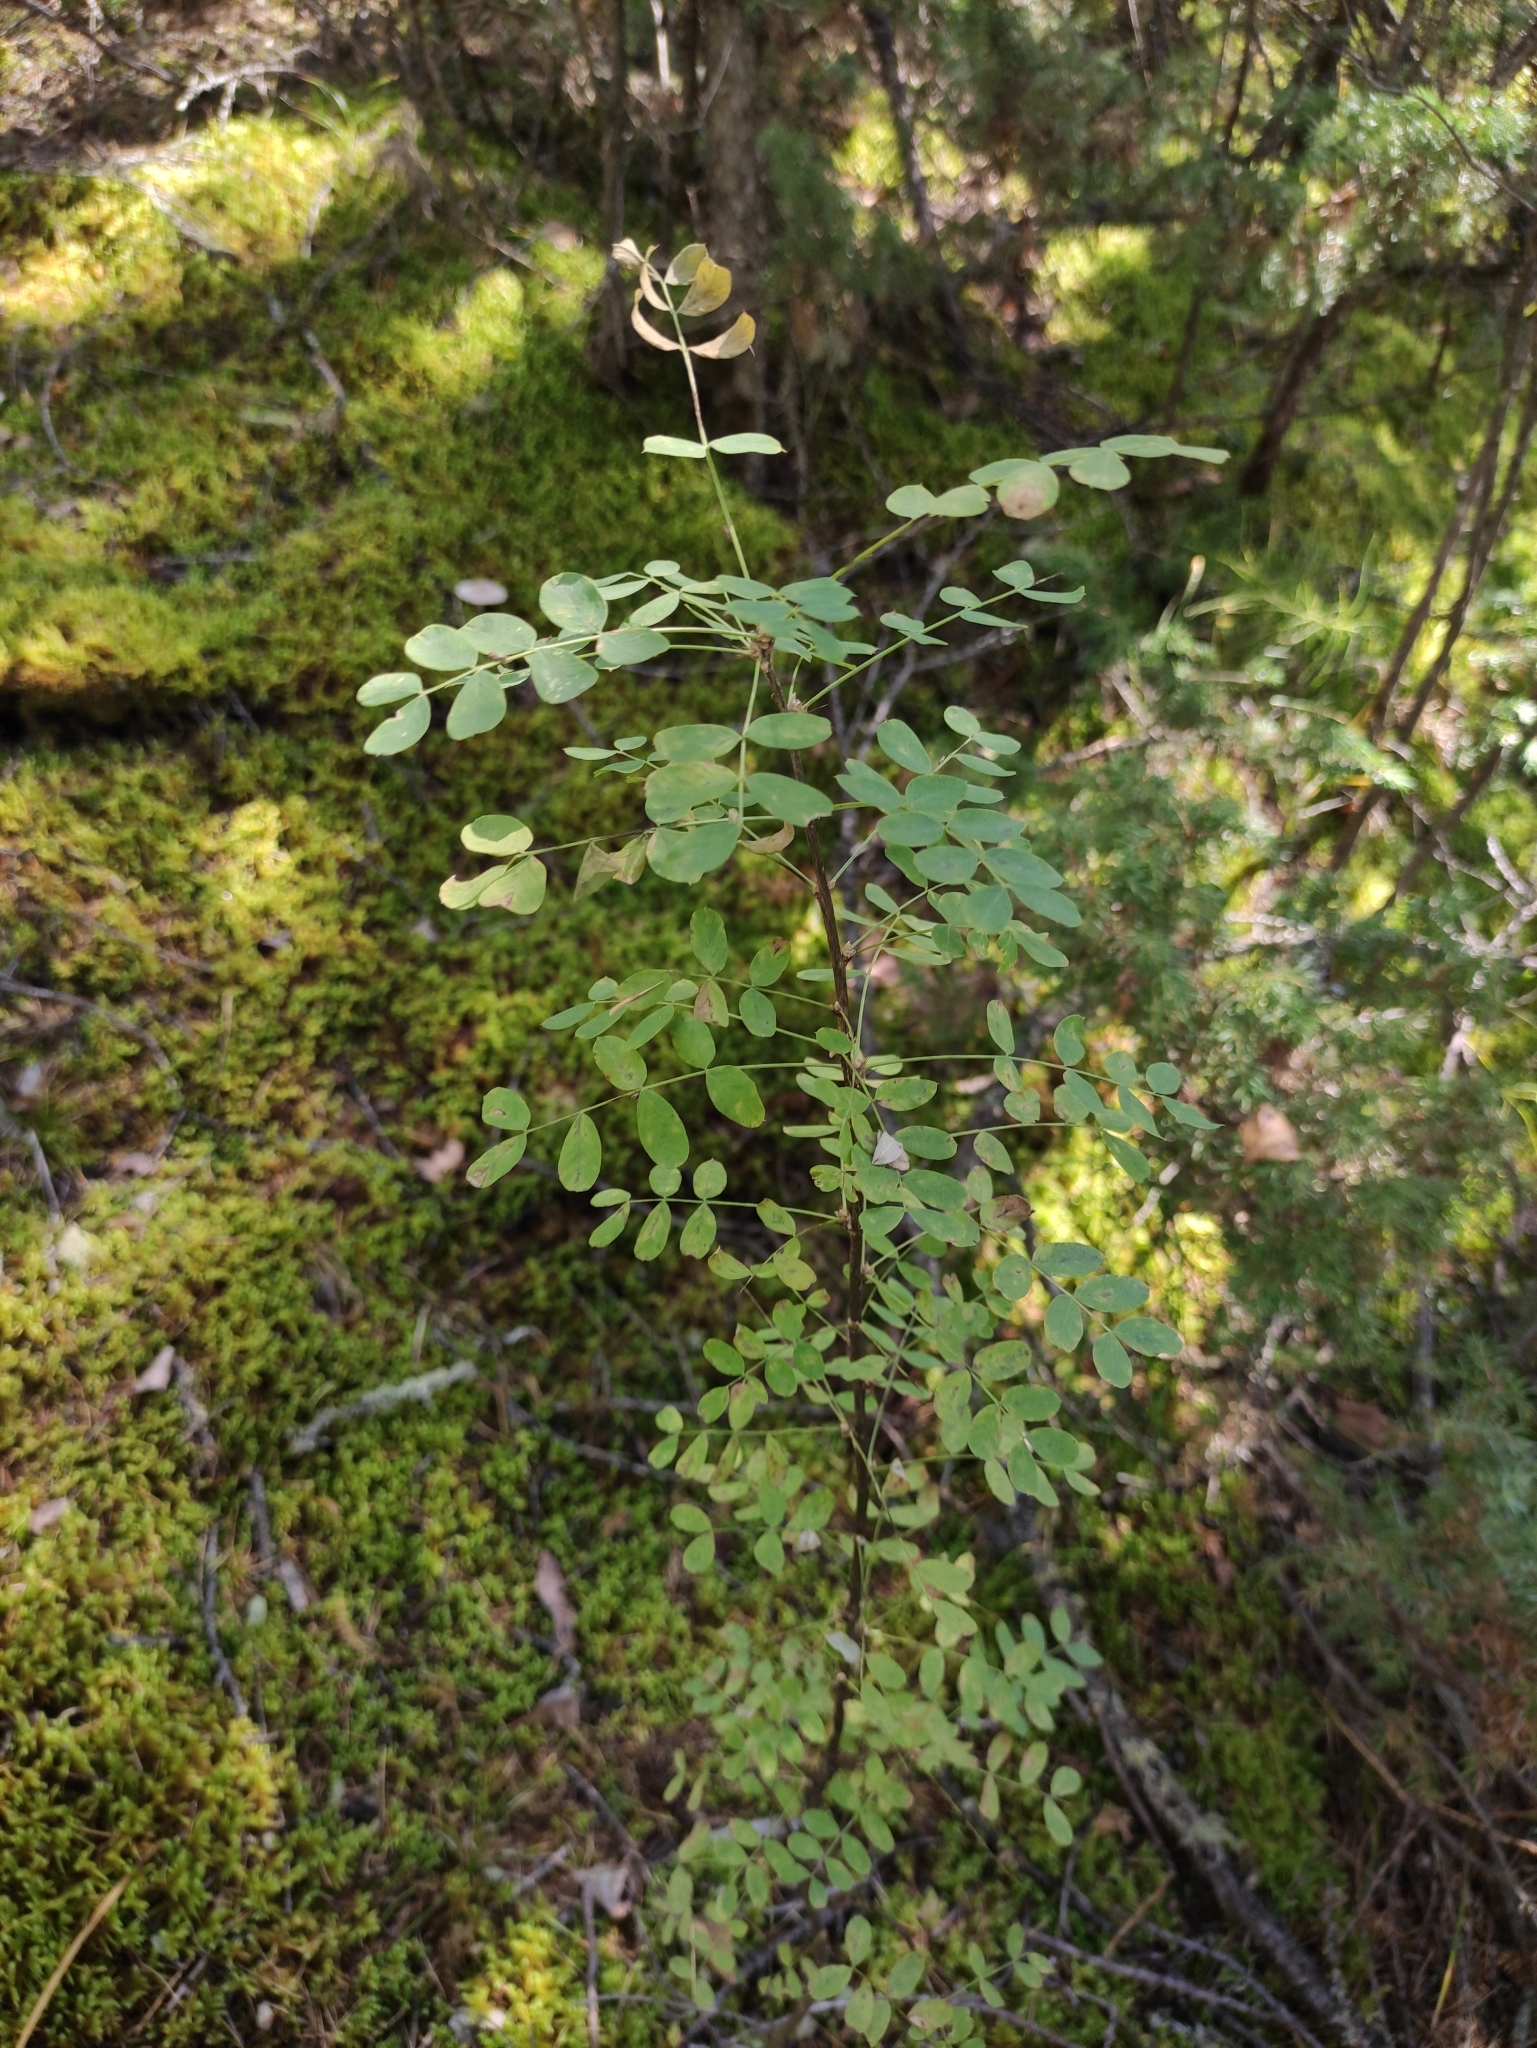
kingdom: Plantae
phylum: Tracheophyta
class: Magnoliopsida
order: Fabales
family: Fabaceae
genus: Caragana
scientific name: Caragana arborescens
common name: Siberian peashrub
